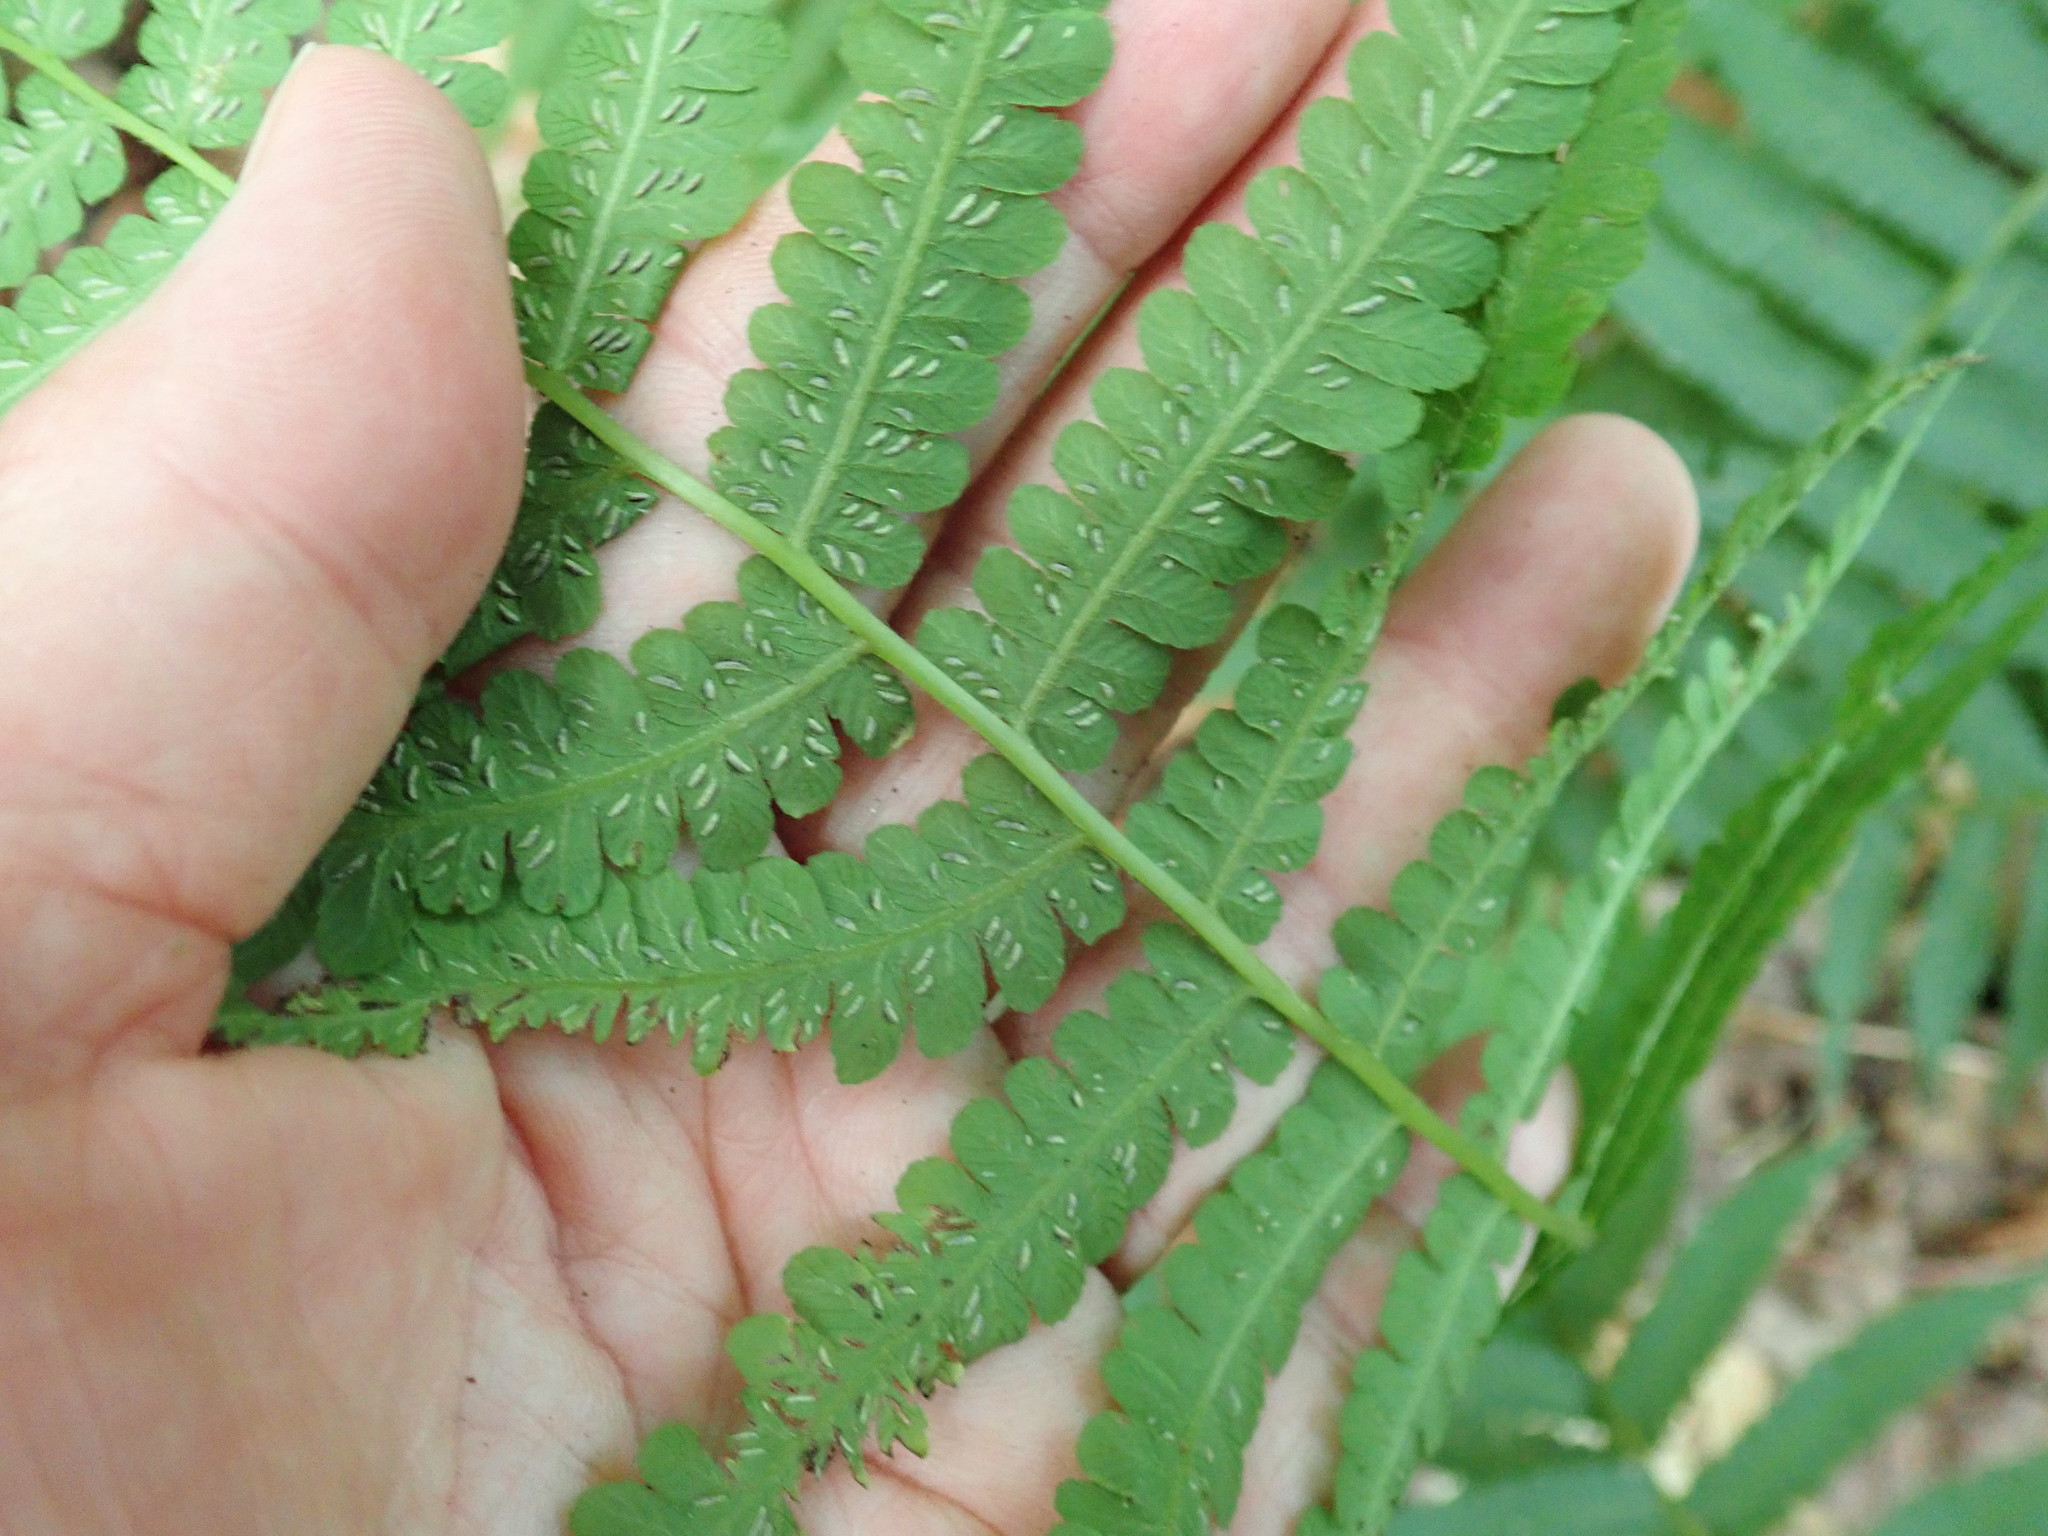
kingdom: Plantae
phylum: Tracheophyta
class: Polypodiopsida
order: Polypodiales
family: Athyriaceae
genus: Deparia
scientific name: Deparia acrostichoides
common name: Silver false spleenwort
